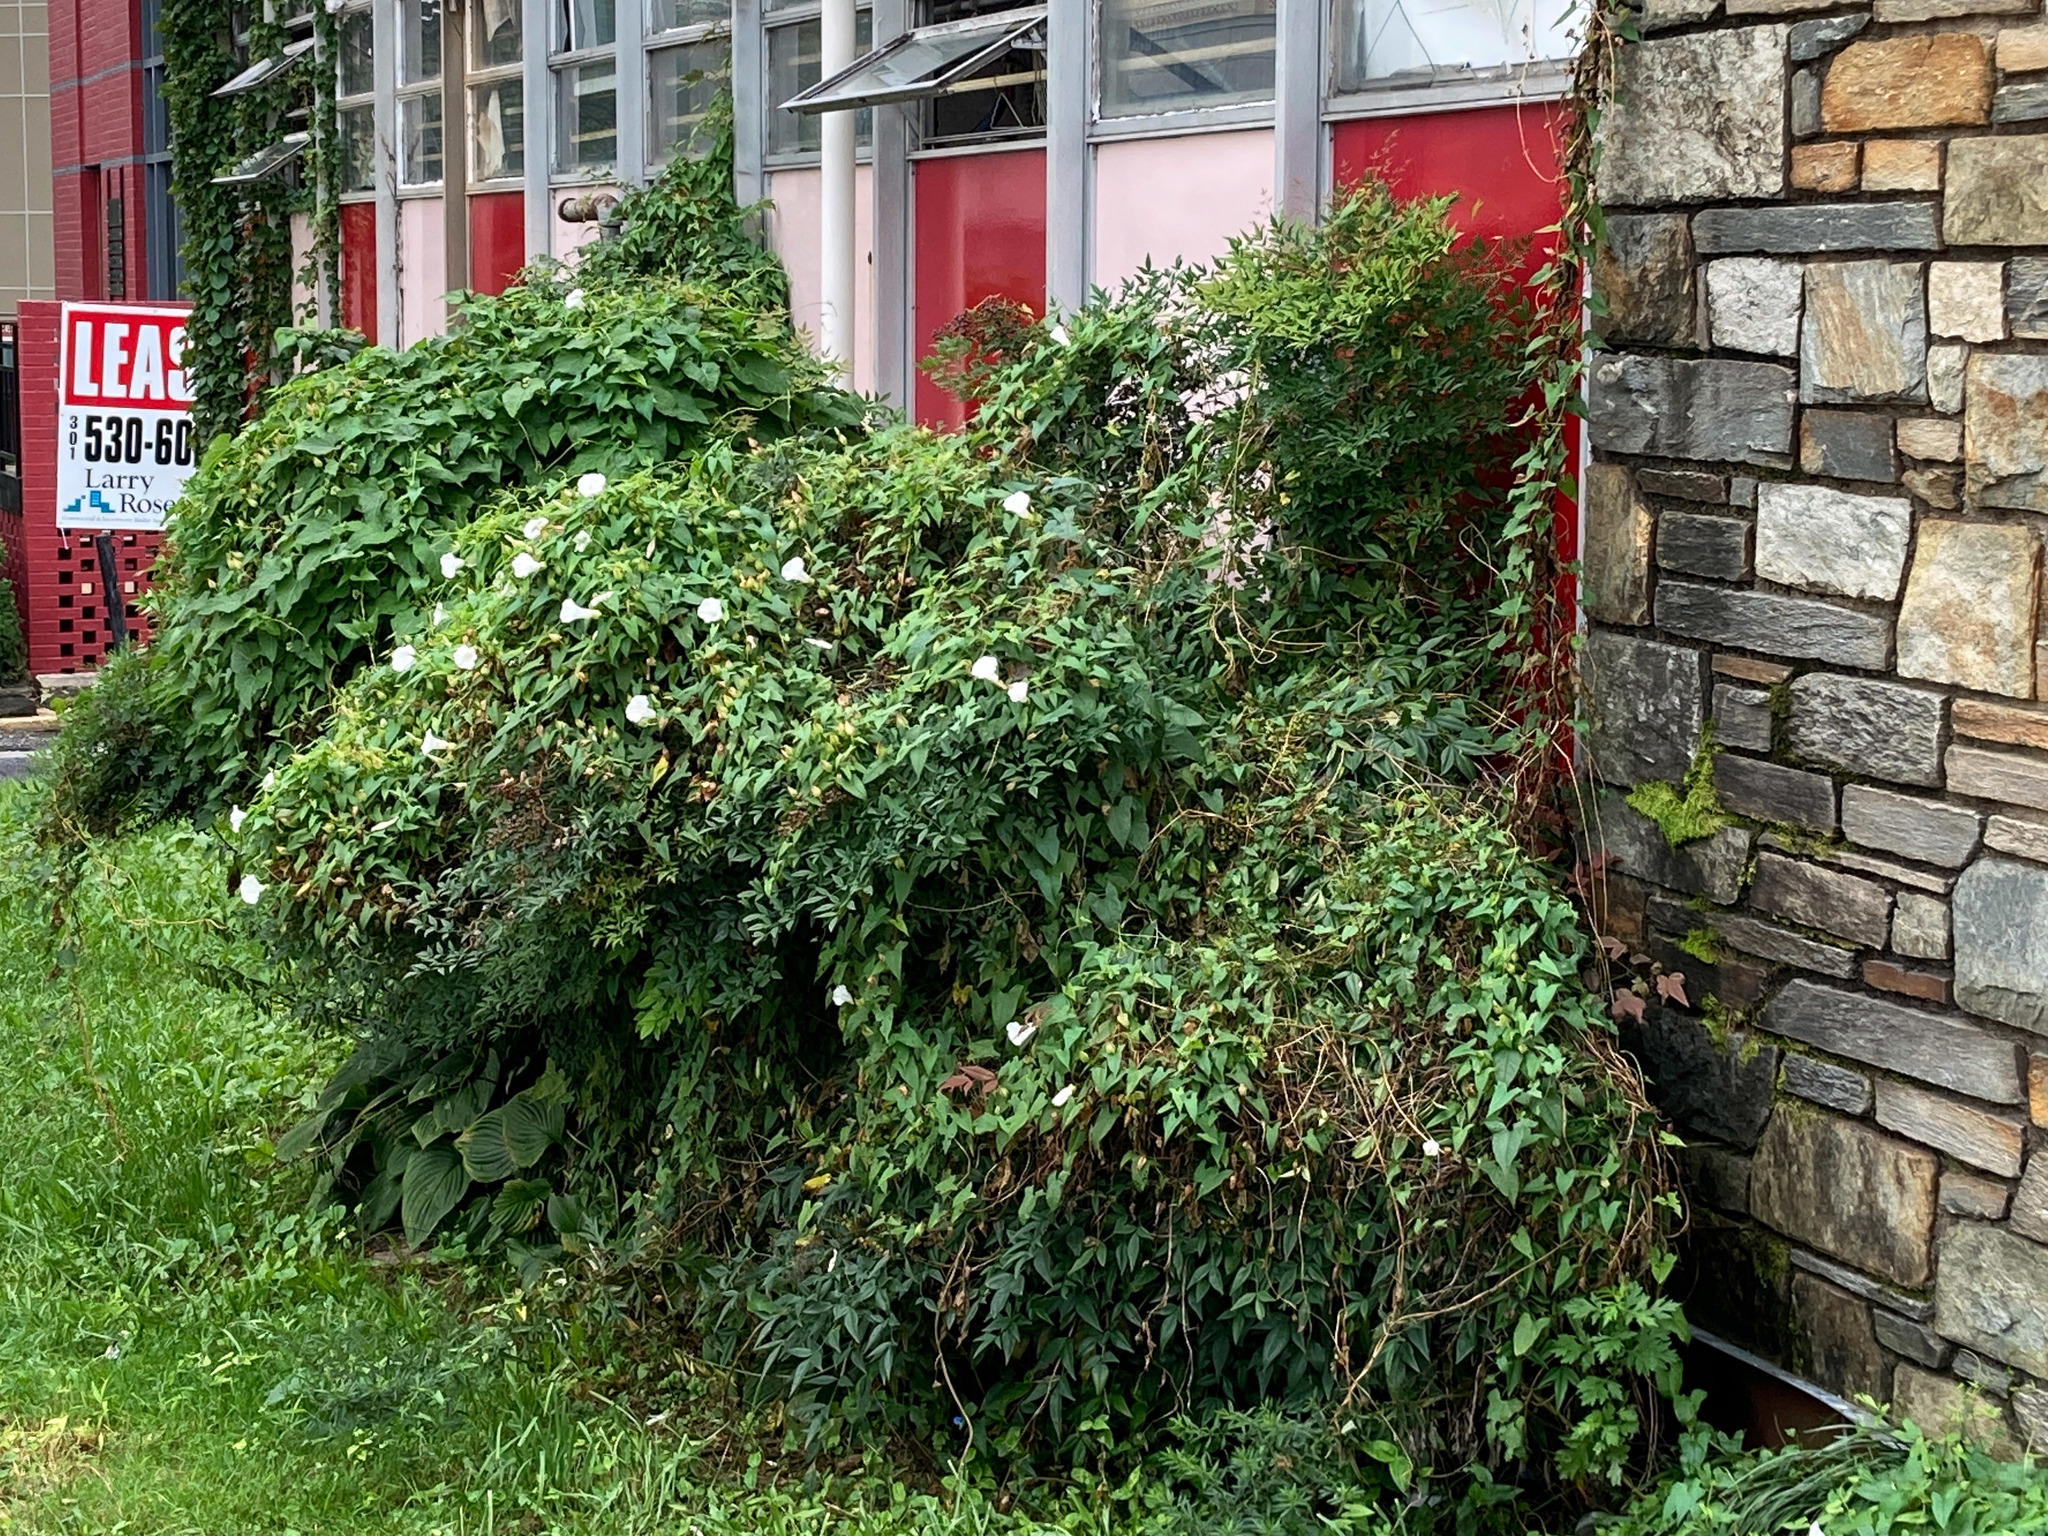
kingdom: Plantae
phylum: Tracheophyta
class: Magnoliopsida
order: Solanales
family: Convolvulaceae
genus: Calystegia
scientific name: Calystegia sepium
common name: Hedge bindweed
